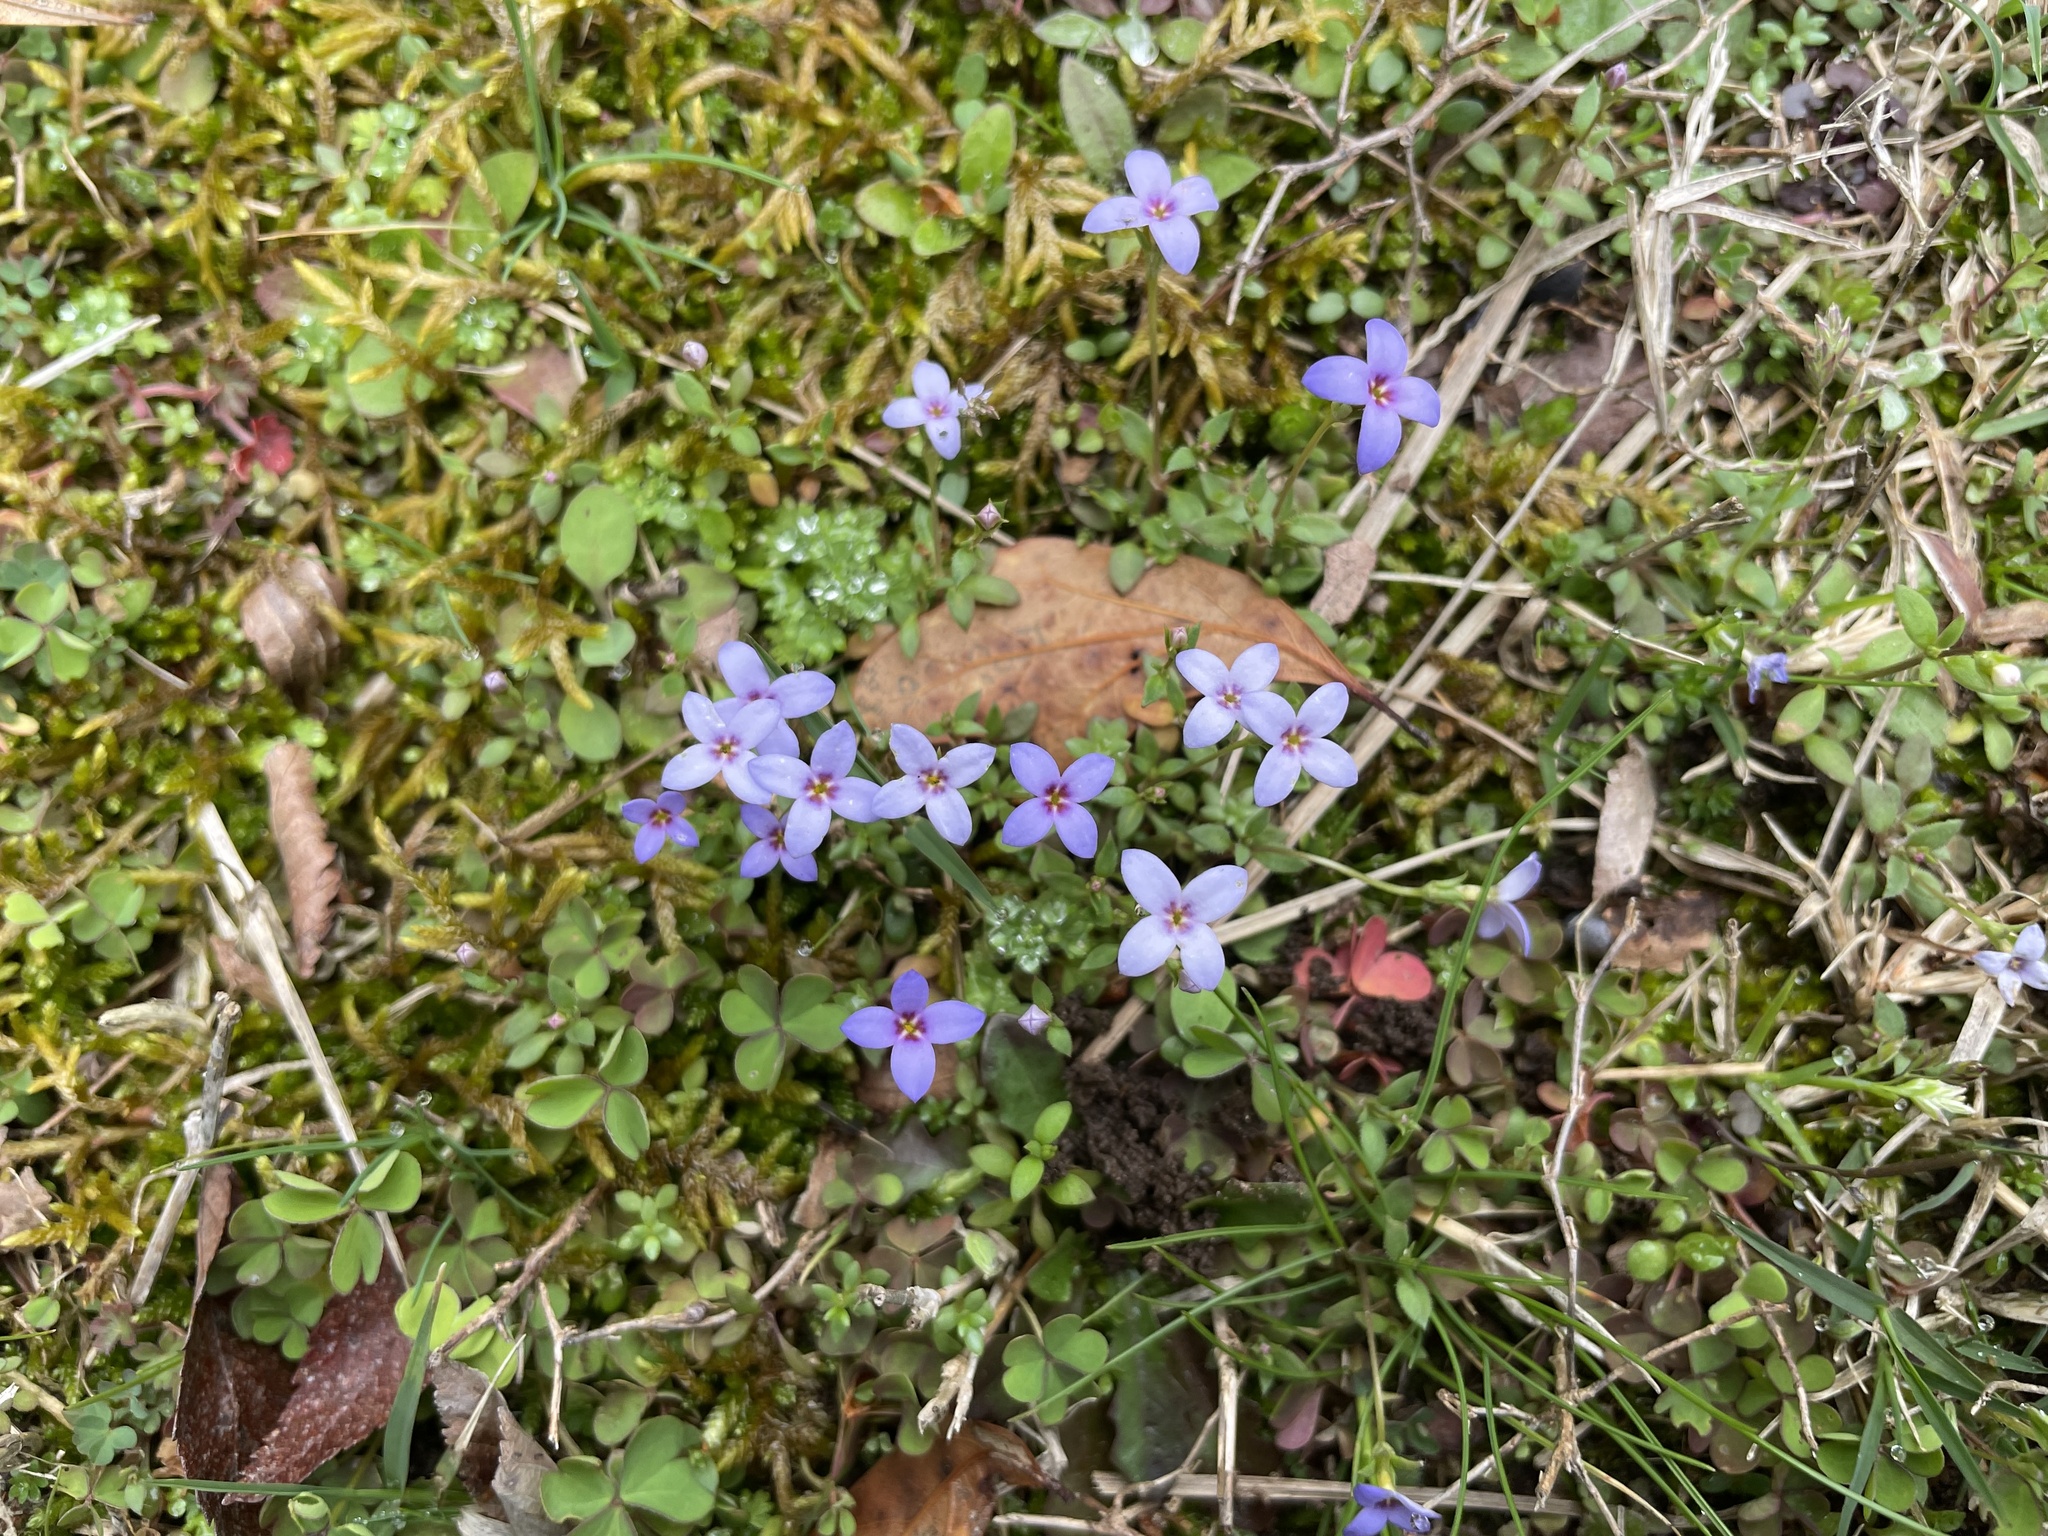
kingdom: Plantae
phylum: Tracheophyta
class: Magnoliopsida
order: Gentianales
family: Rubiaceae
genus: Houstonia
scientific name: Houstonia pusilla
